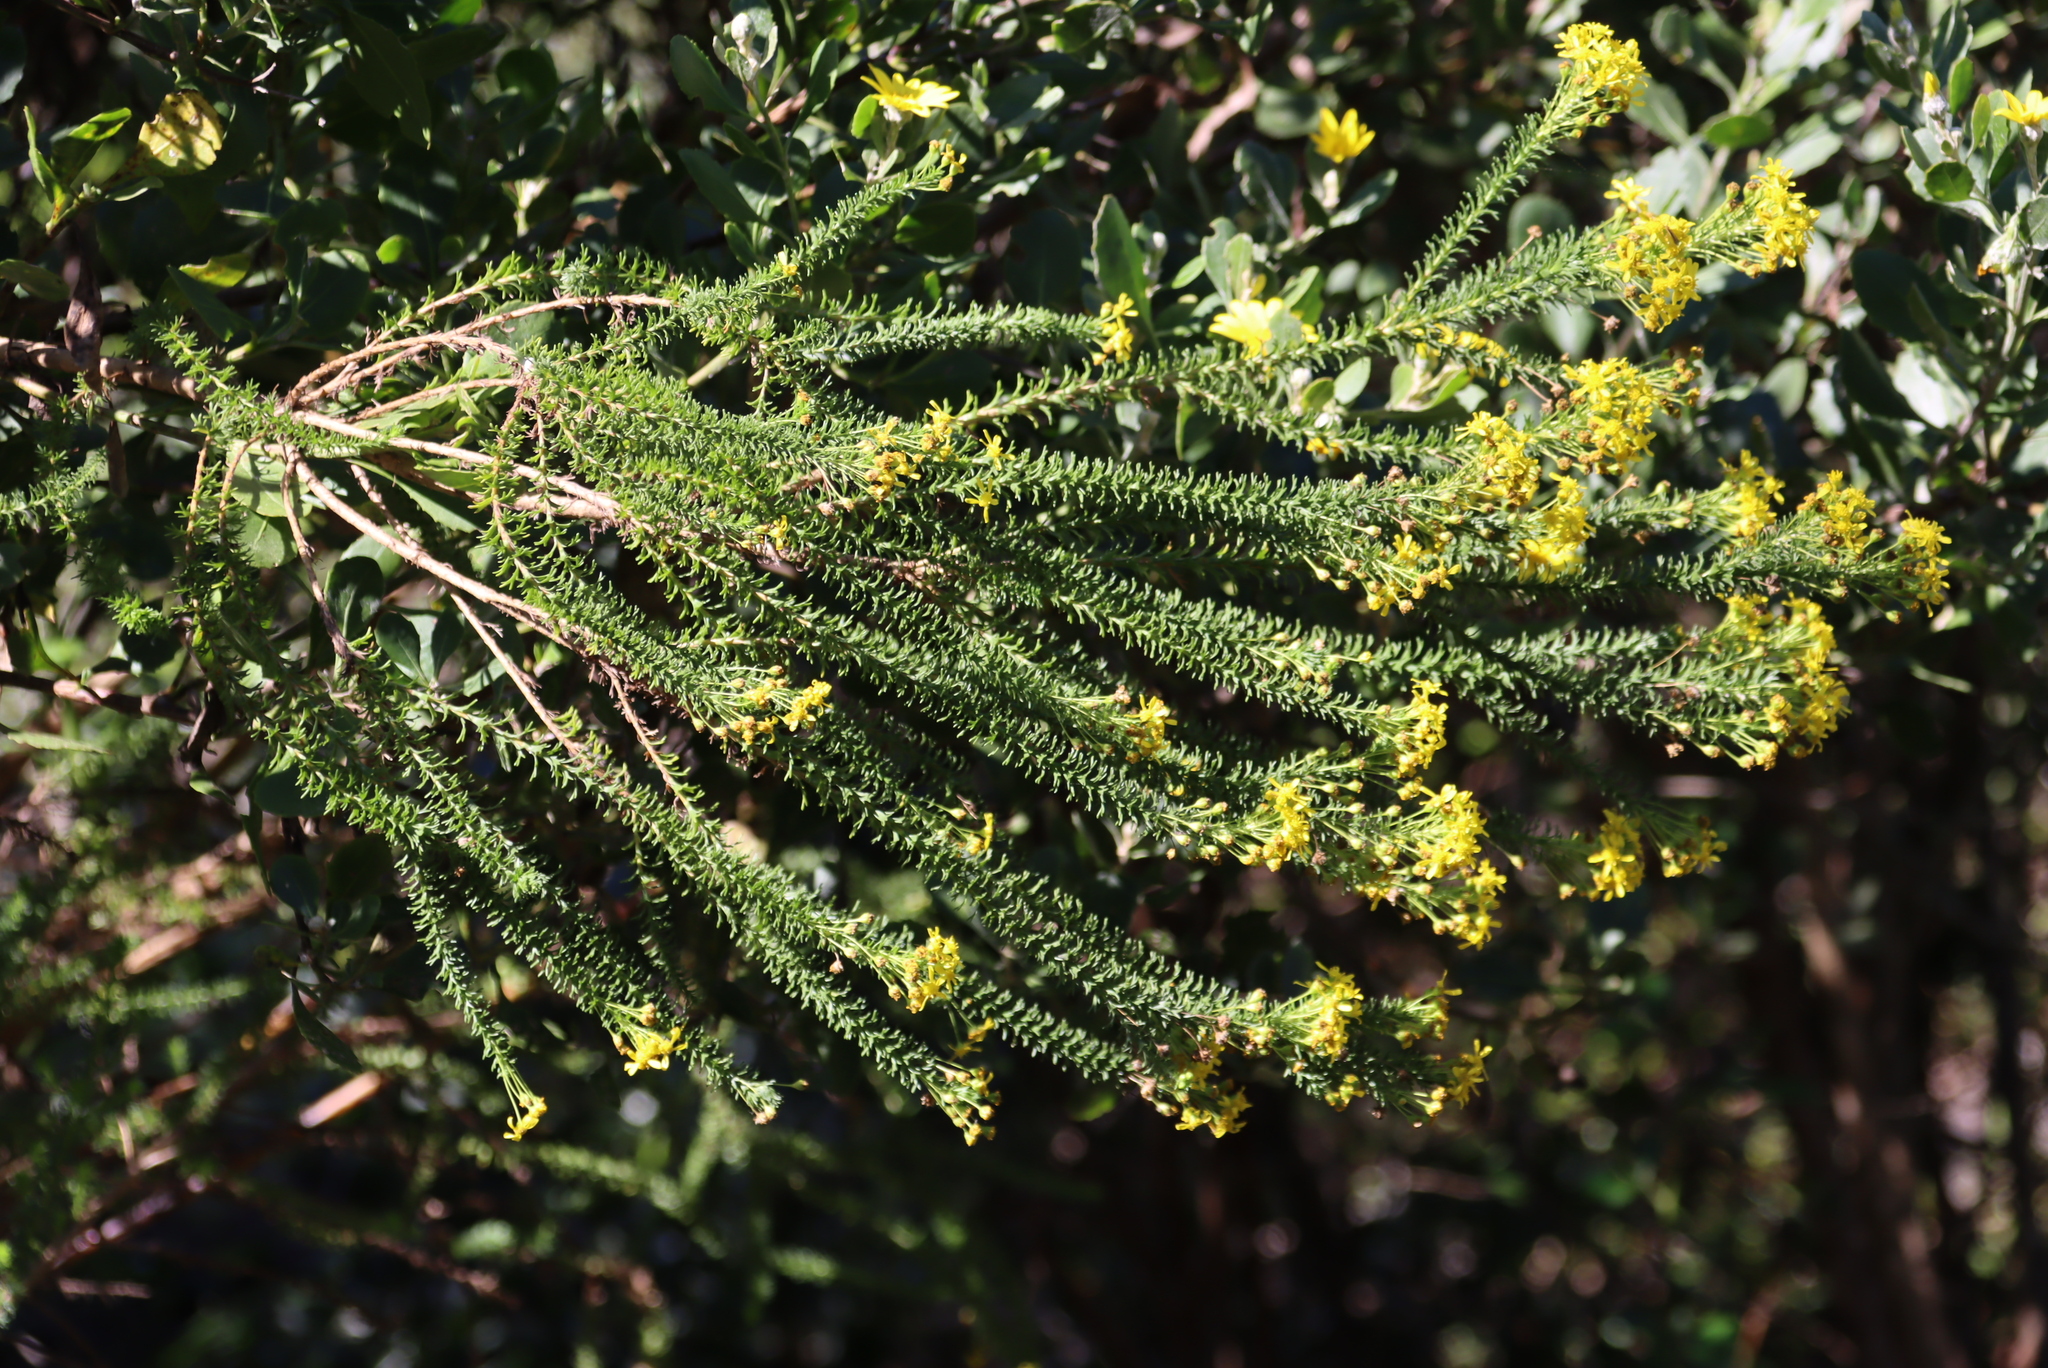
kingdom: Plantae
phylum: Tracheophyta
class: Magnoliopsida
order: Asterales
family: Asteraceae
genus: Euryops
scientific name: Euryops virgineus
